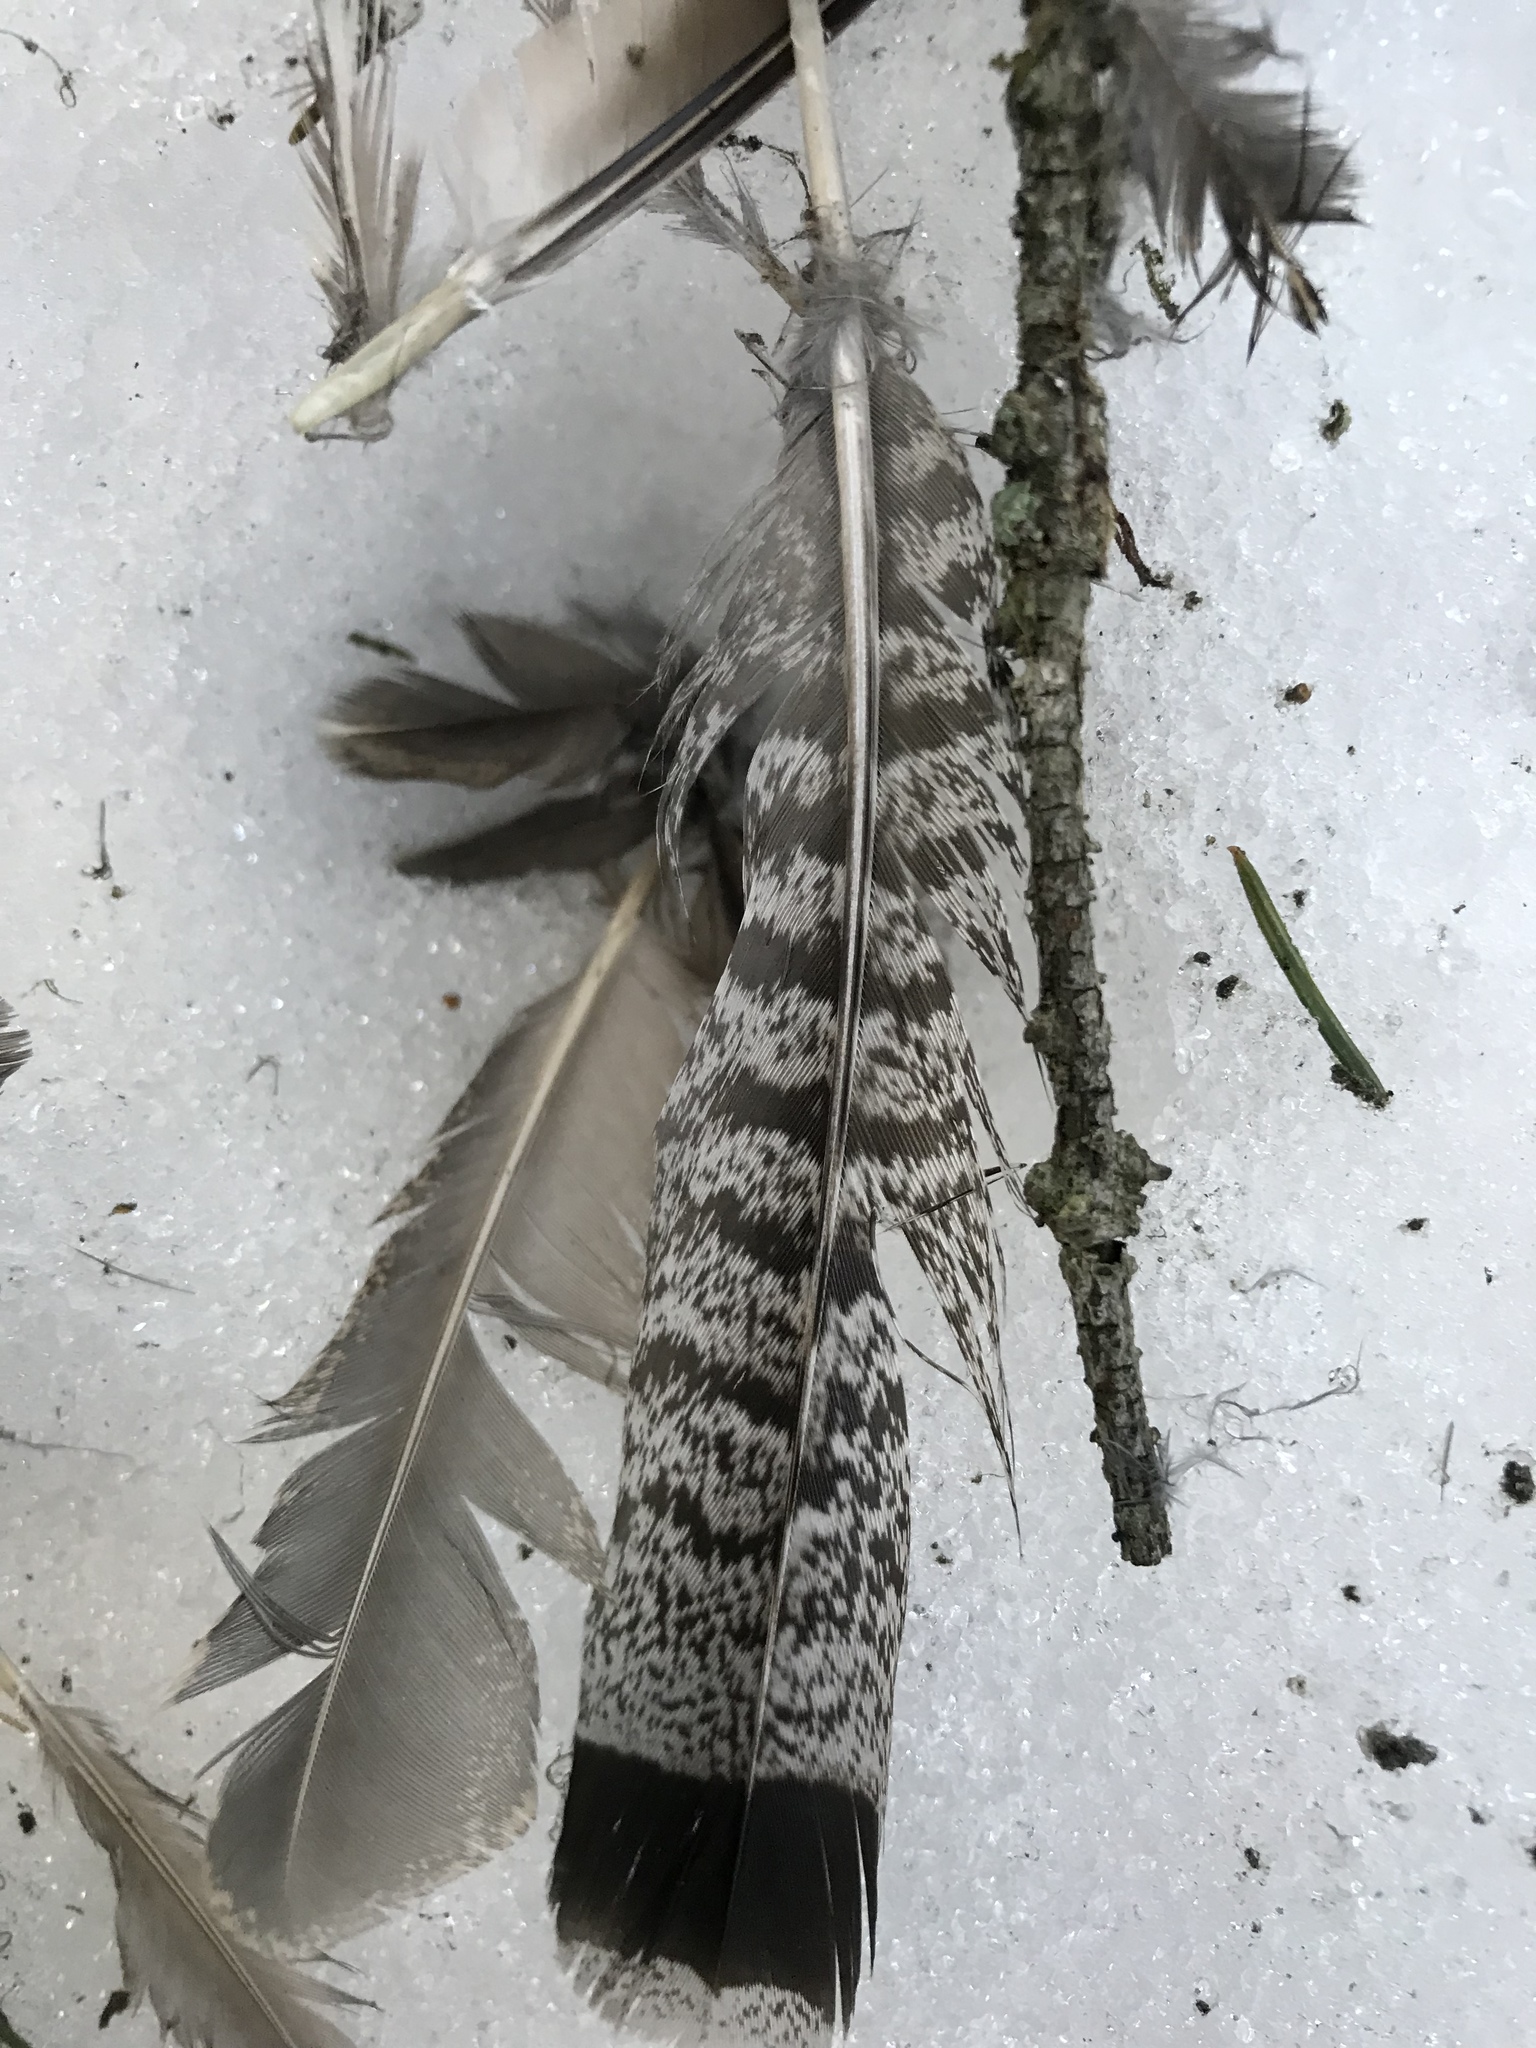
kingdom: Animalia
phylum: Chordata
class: Aves
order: Galliformes
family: Phasianidae
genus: Bonasa
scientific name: Bonasa umbellus
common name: Ruffed grouse
